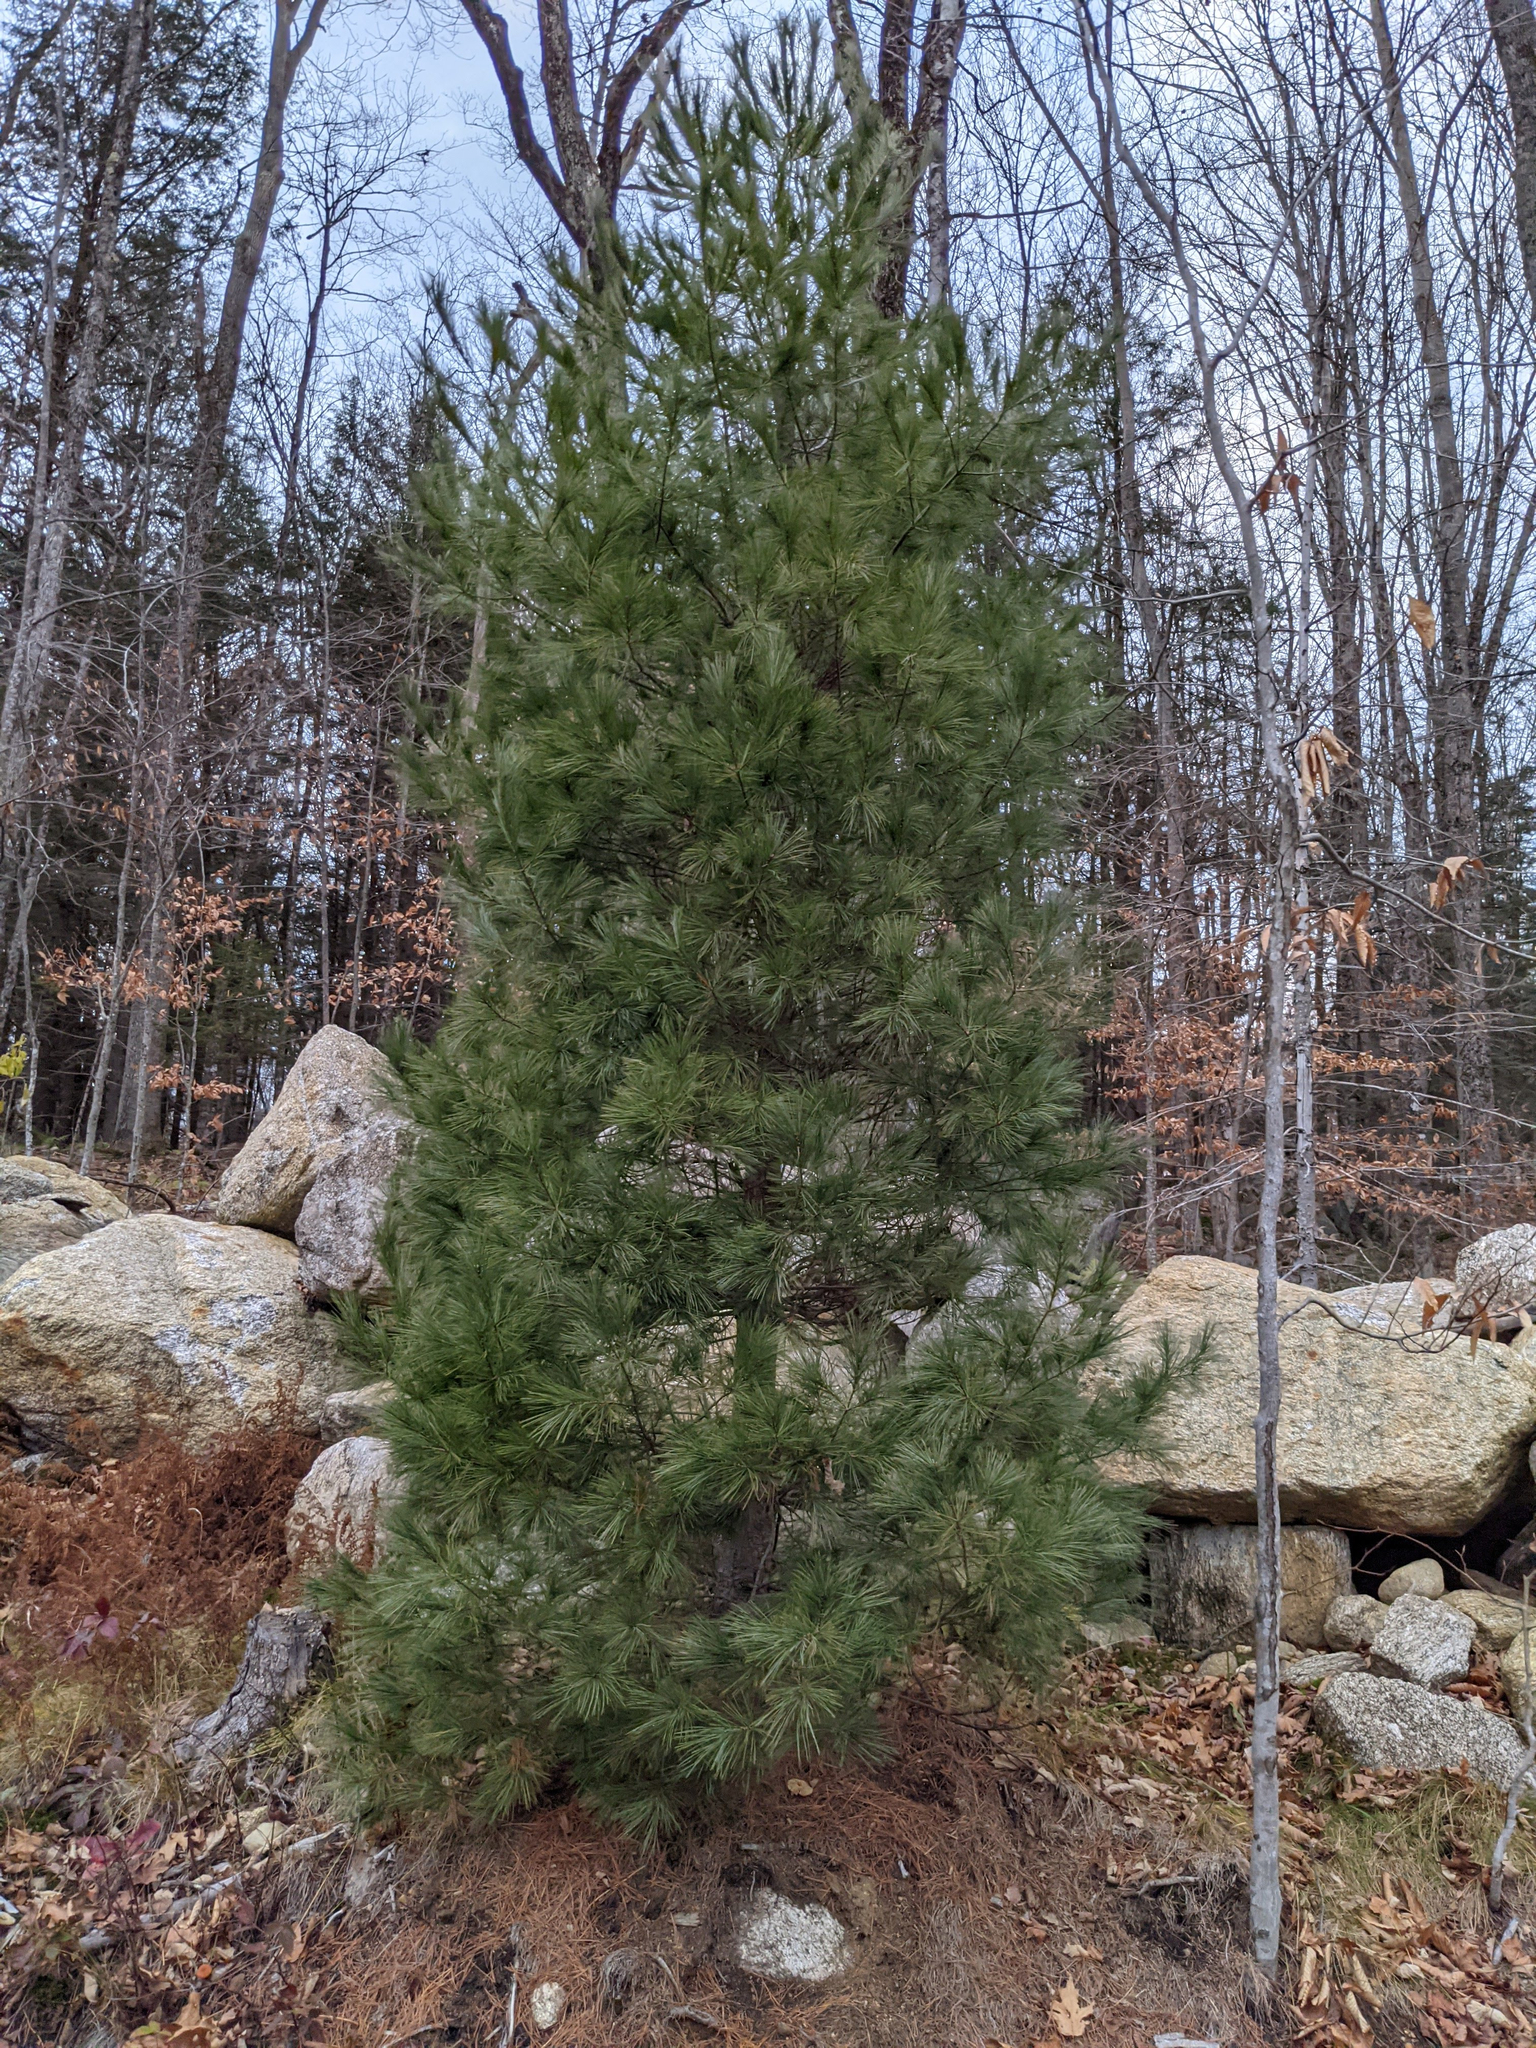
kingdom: Plantae
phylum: Tracheophyta
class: Pinopsida
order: Pinales
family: Pinaceae
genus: Pinus
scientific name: Pinus strobus
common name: Weymouth pine
